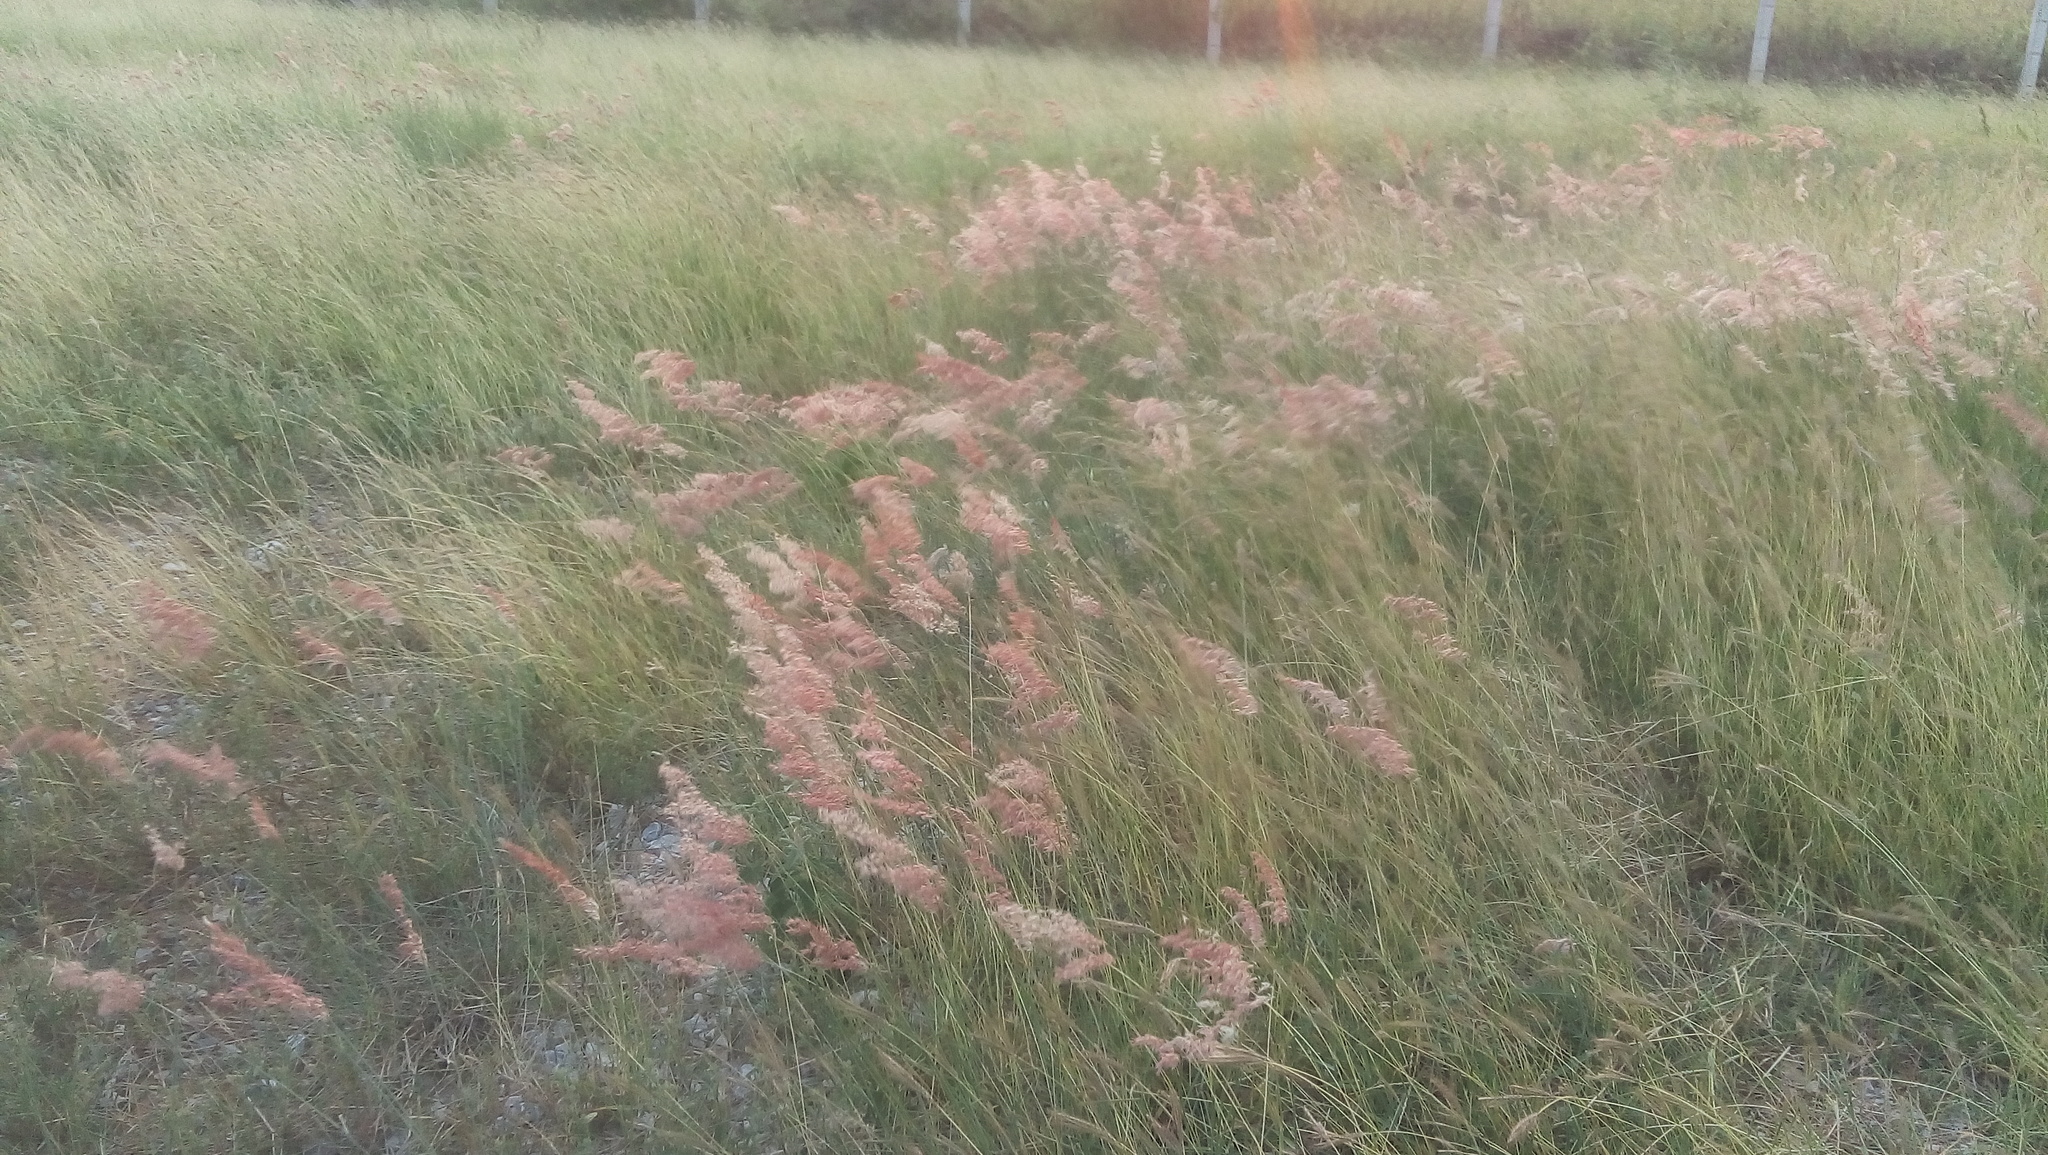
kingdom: Plantae
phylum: Tracheophyta
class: Liliopsida
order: Poales
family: Poaceae
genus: Melinis
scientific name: Melinis repens
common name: Rose natal grass
